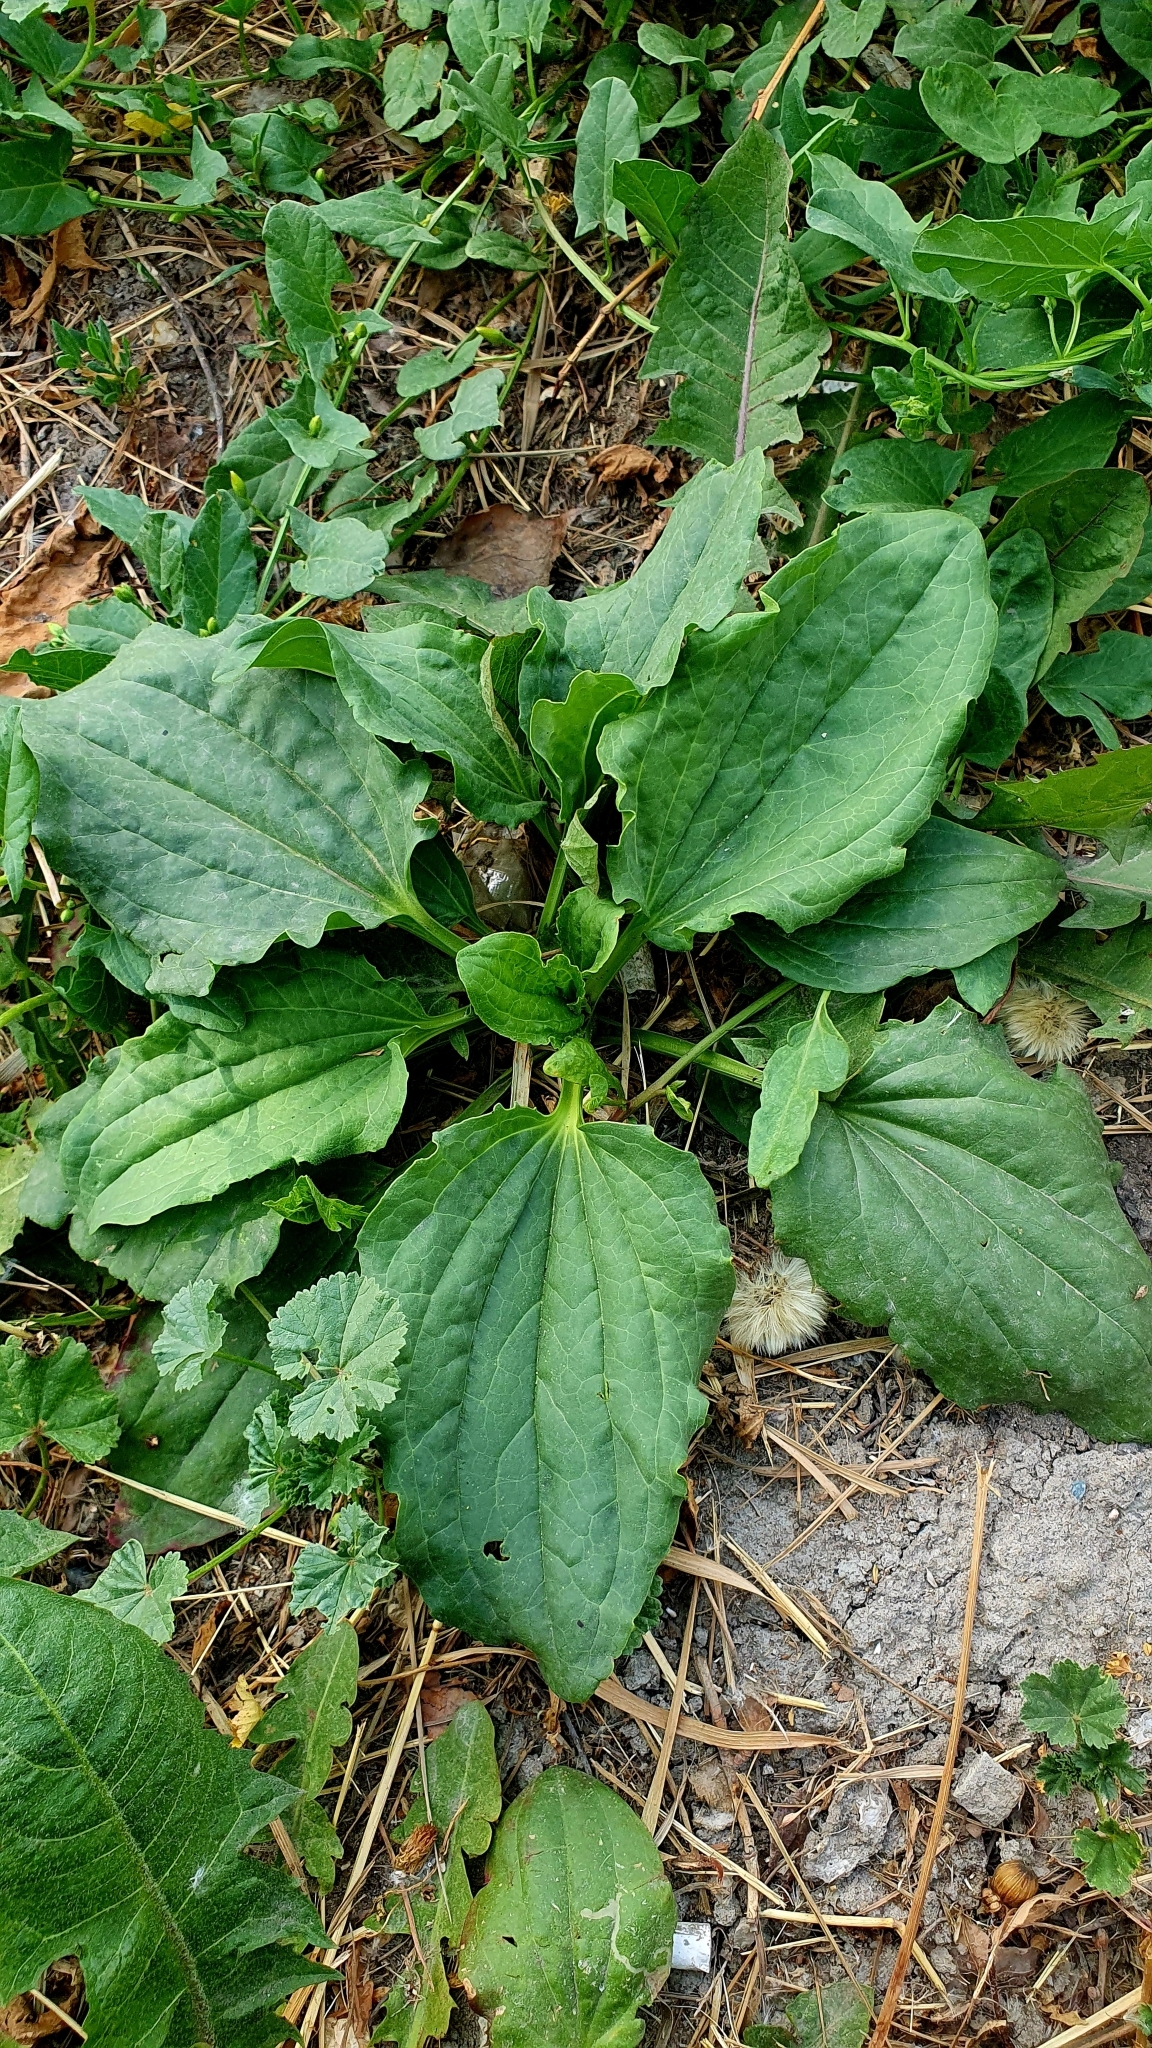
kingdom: Plantae
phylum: Tracheophyta
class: Magnoliopsida
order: Lamiales
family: Plantaginaceae
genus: Plantago
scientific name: Plantago major
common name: Common plantain
